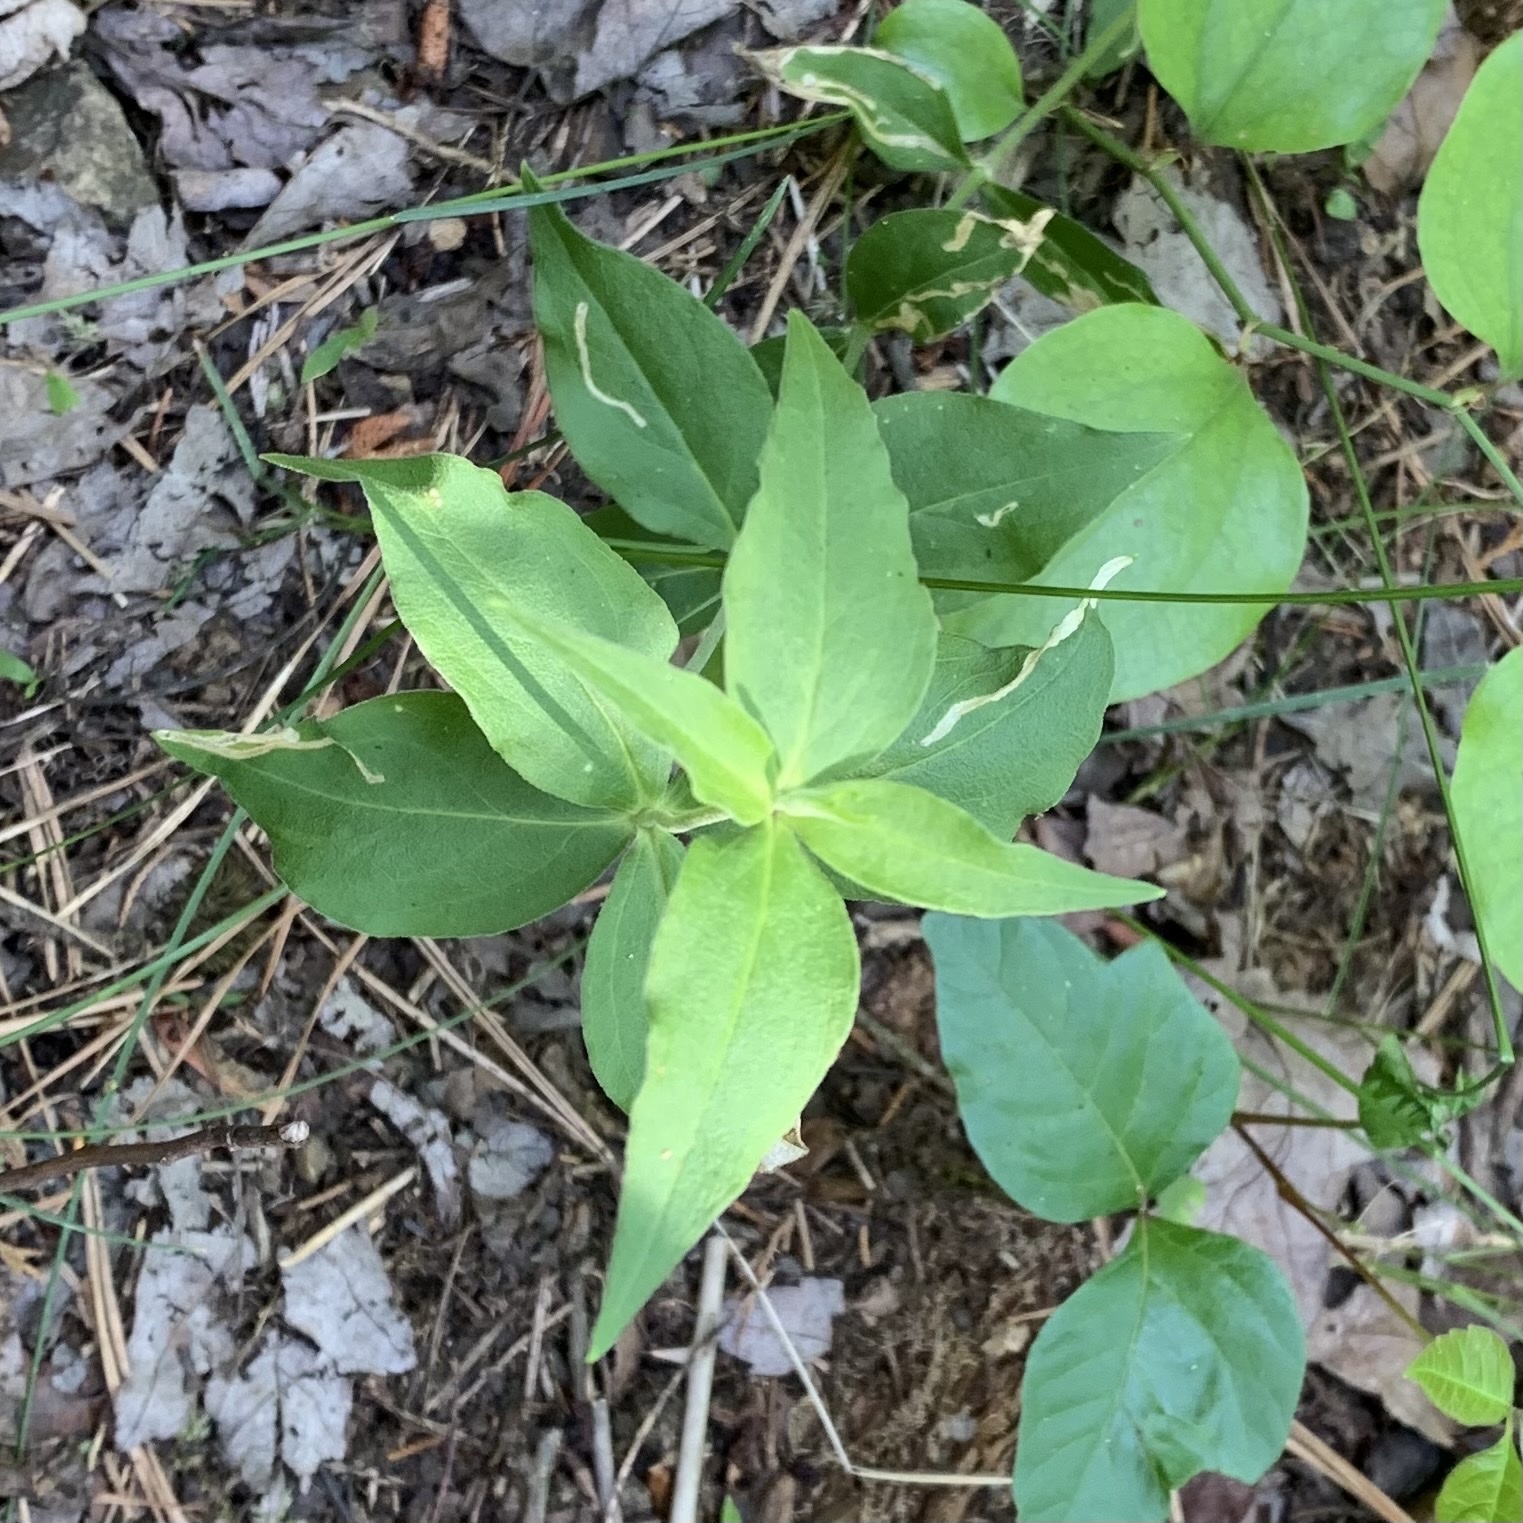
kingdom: Plantae
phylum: Tracheophyta
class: Magnoliopsida
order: Caryophyllales
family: Caryophyllaceae
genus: Silene
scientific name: Silene stellata
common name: Starry campion
